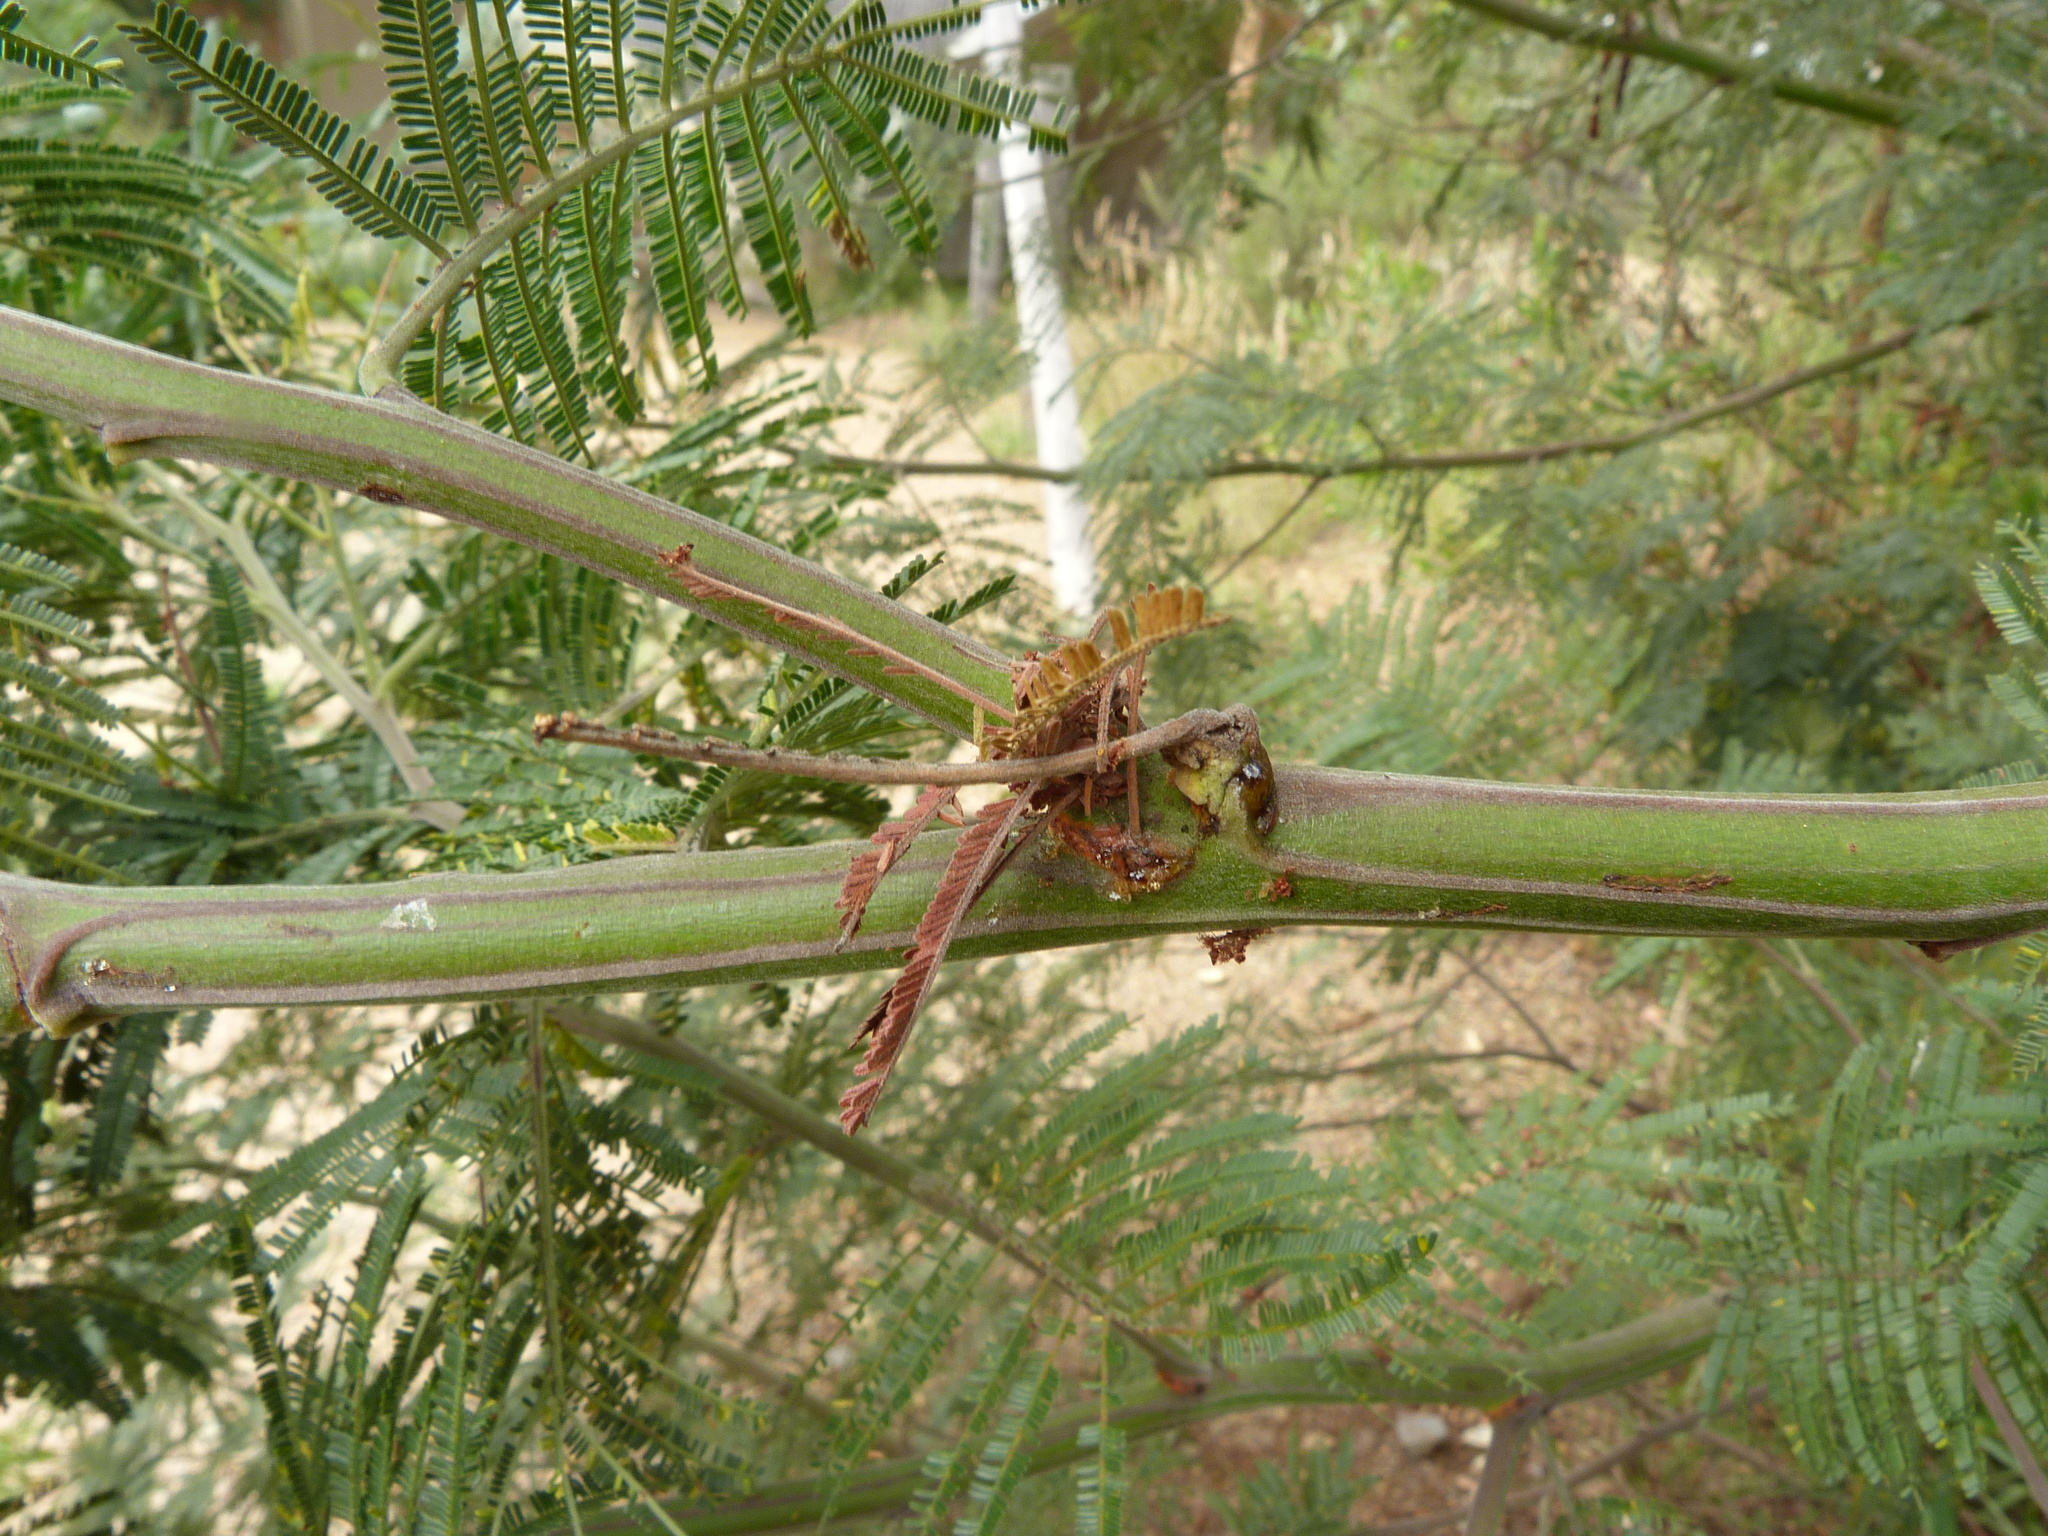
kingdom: Plantae
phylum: Tracheophyta
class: Magnoliopsida
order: Fabales
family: Fabaceae
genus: Acacia
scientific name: Acacia decurrens
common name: Green wattle
